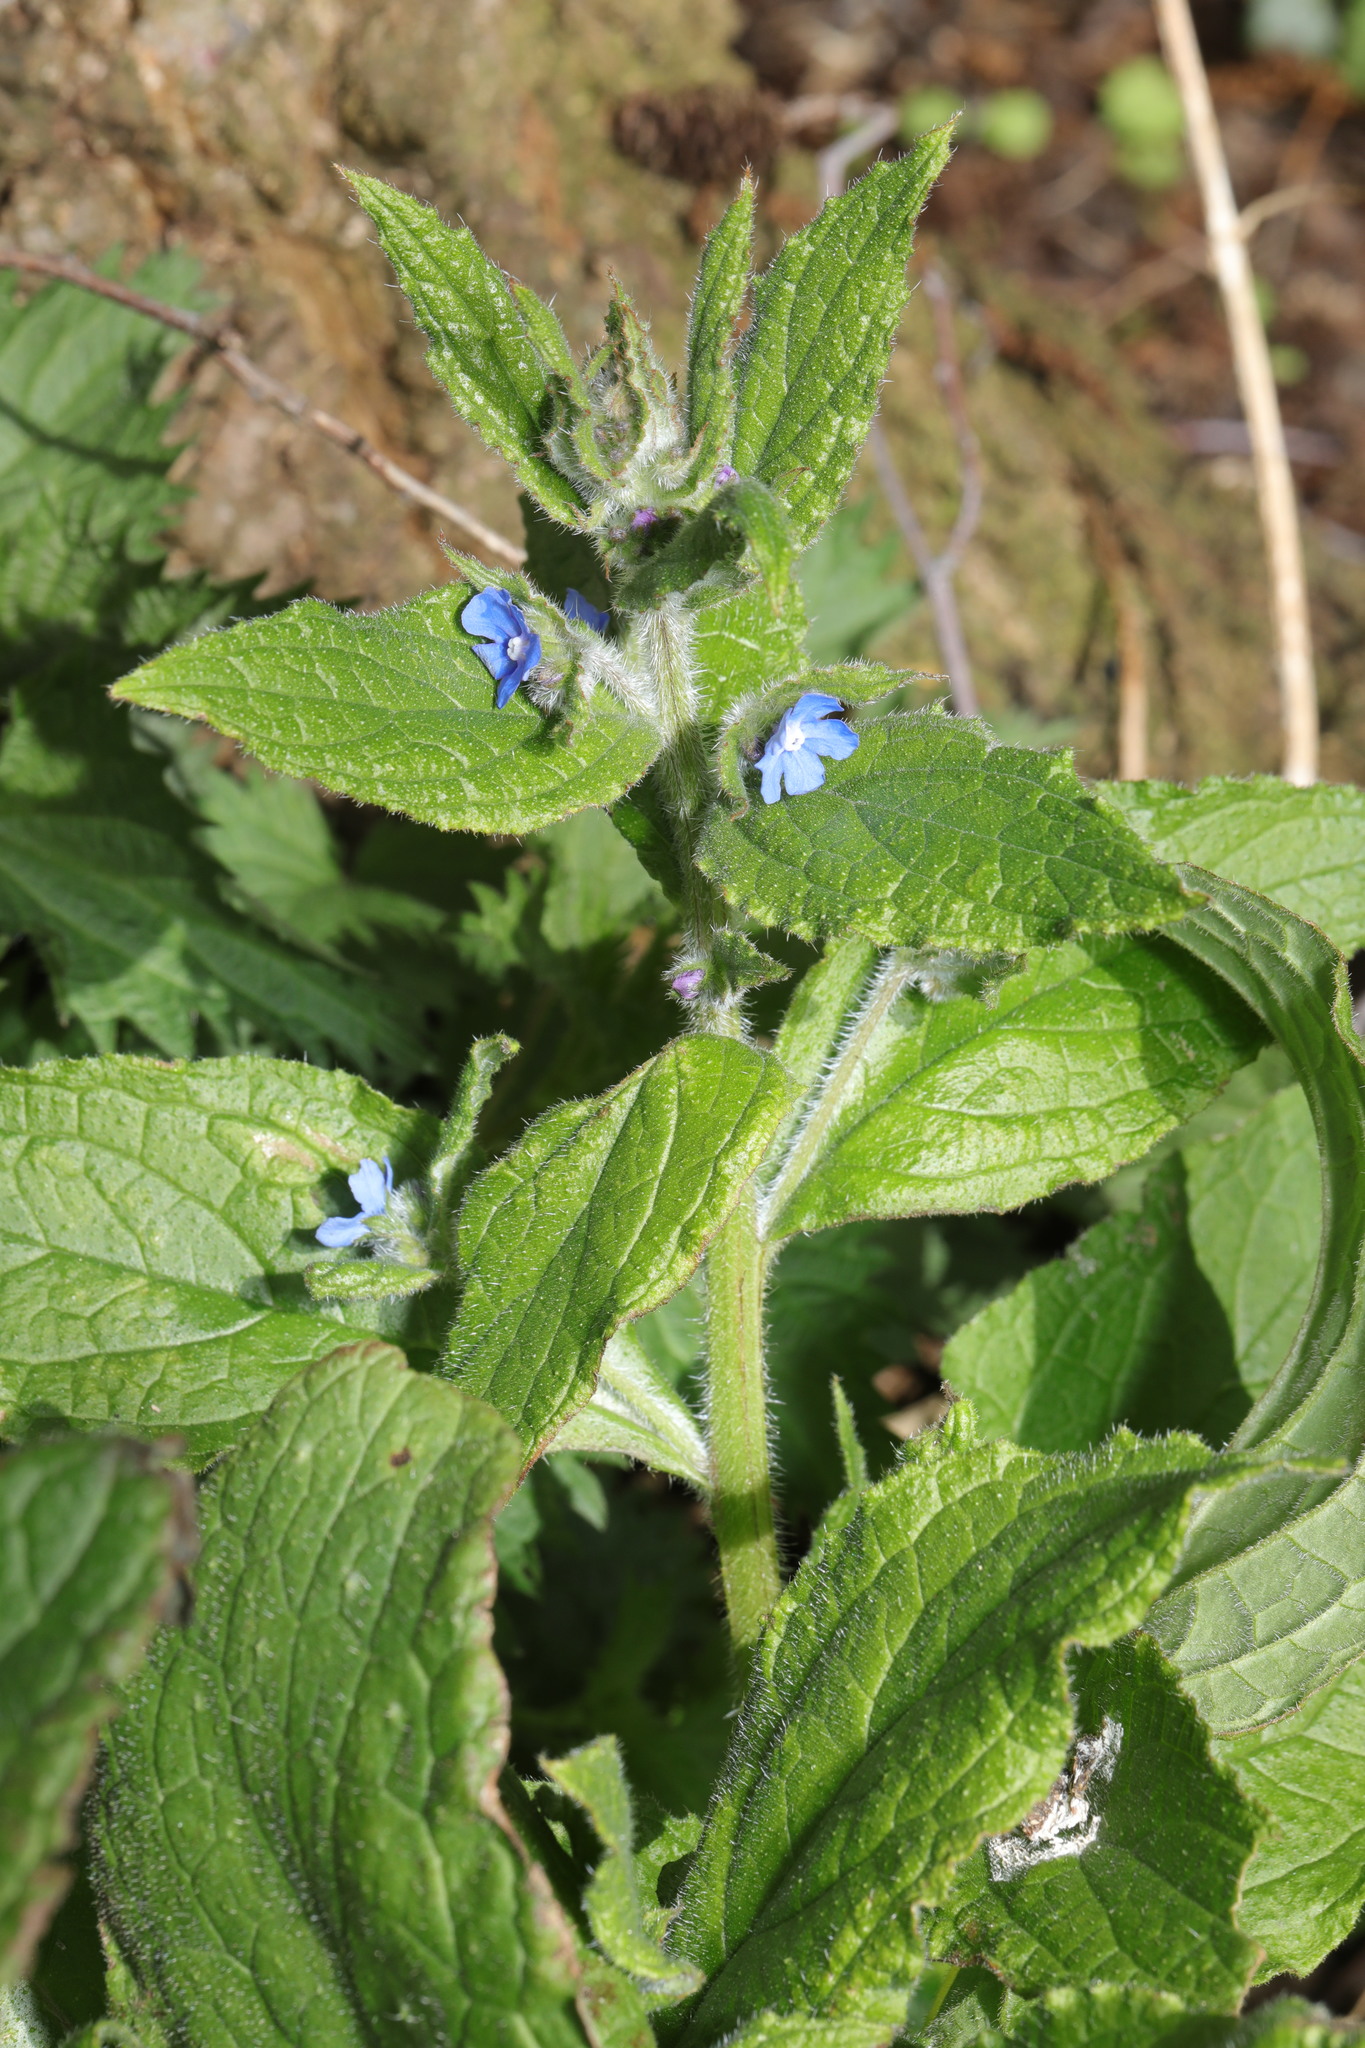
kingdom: Plantae
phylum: Tracheophyta
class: Magnoliopsida
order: Boraginales
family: Boraginaceae
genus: Pentaglottis
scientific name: Pentaglottis sempervirens
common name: Green alkanet
